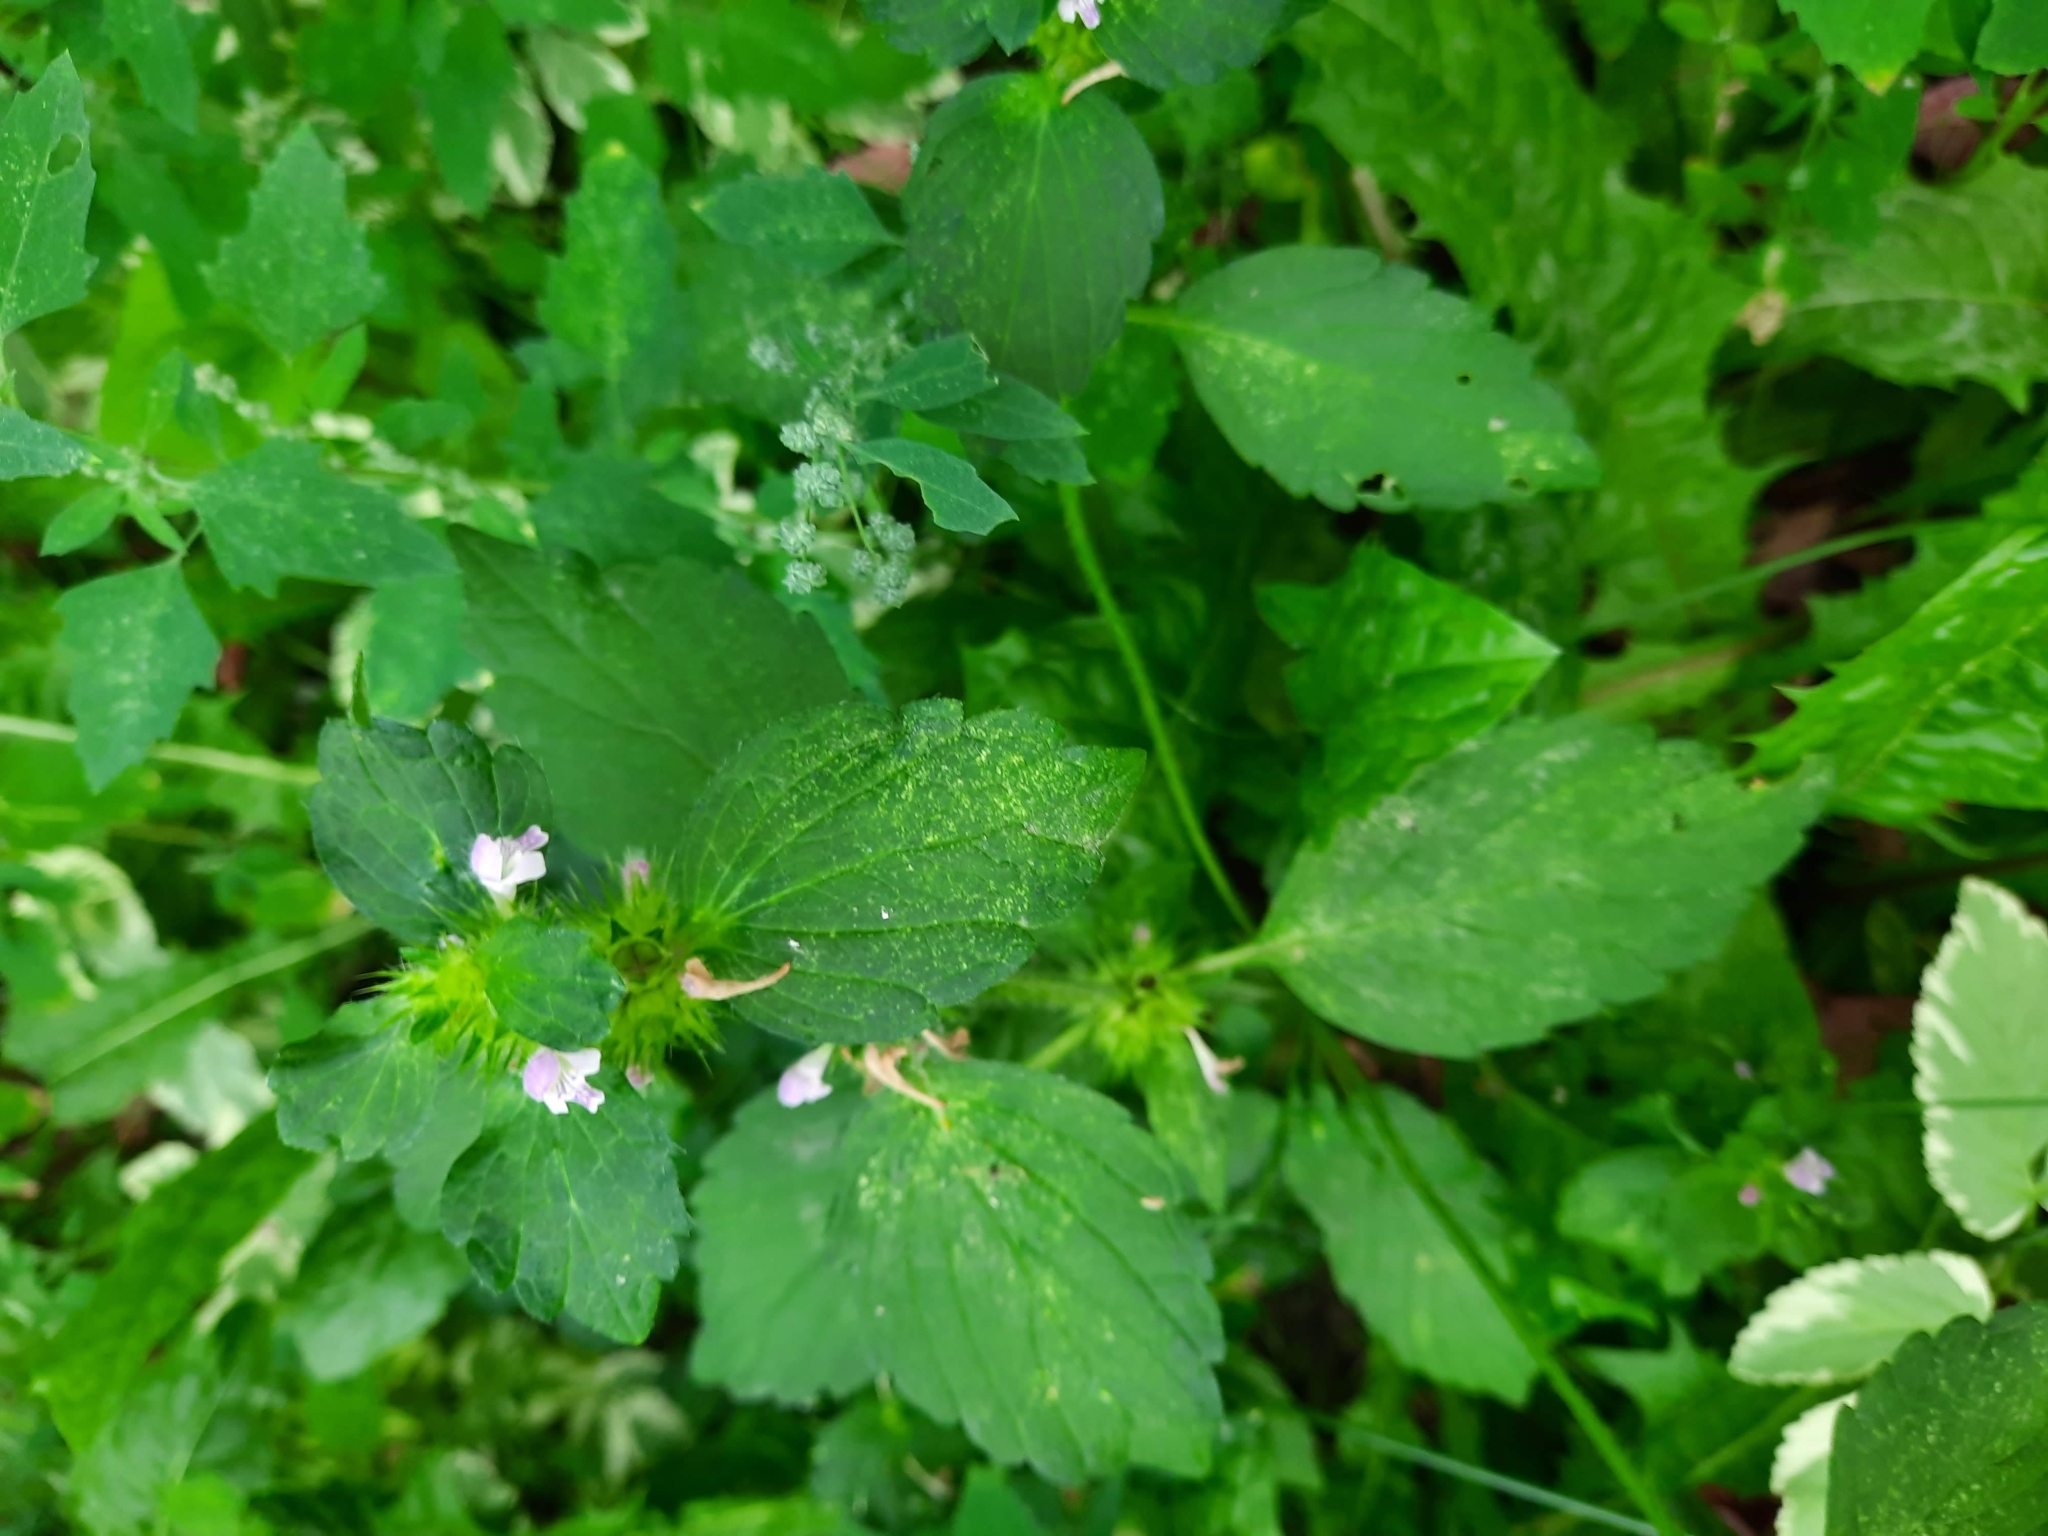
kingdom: Plantae
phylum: Tracheophyta
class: Magnoliopsida
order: Lamiales
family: Lamiaceae
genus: Galeopsis
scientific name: Galeopsis bifida
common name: Bifid hemp-nettle
